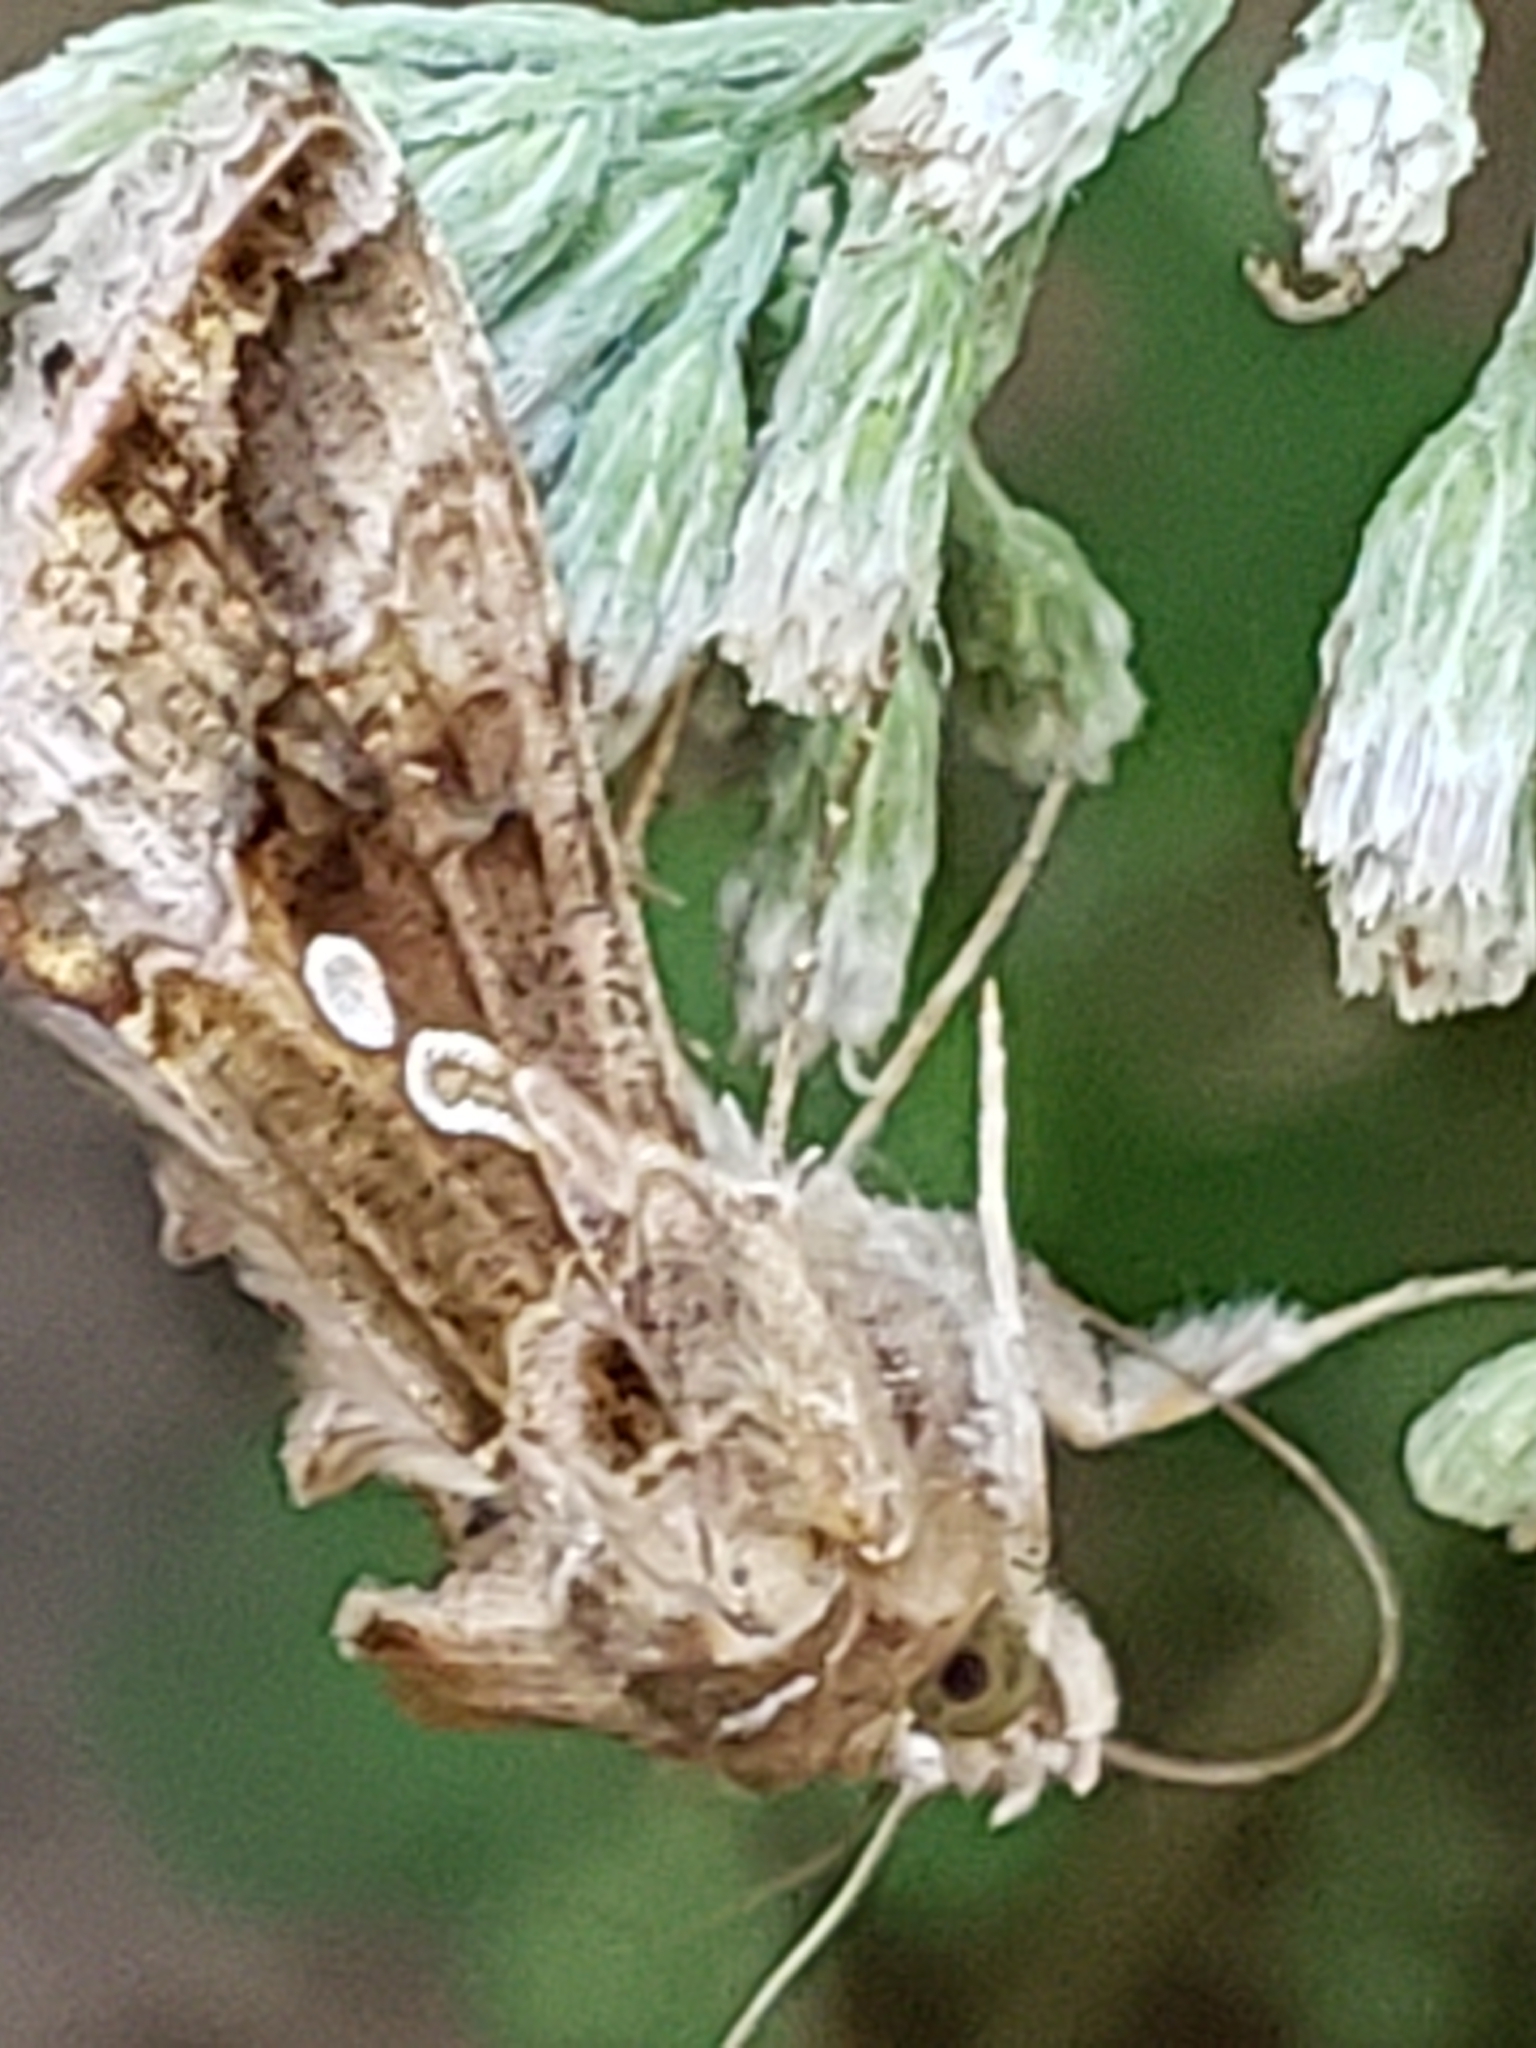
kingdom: Animalia
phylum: Arthropoda
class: Insecta
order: Lepidoptera
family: Noctuidae
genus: Chrysodeixis
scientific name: Chrysodeixis includens
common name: Cutworm moth
